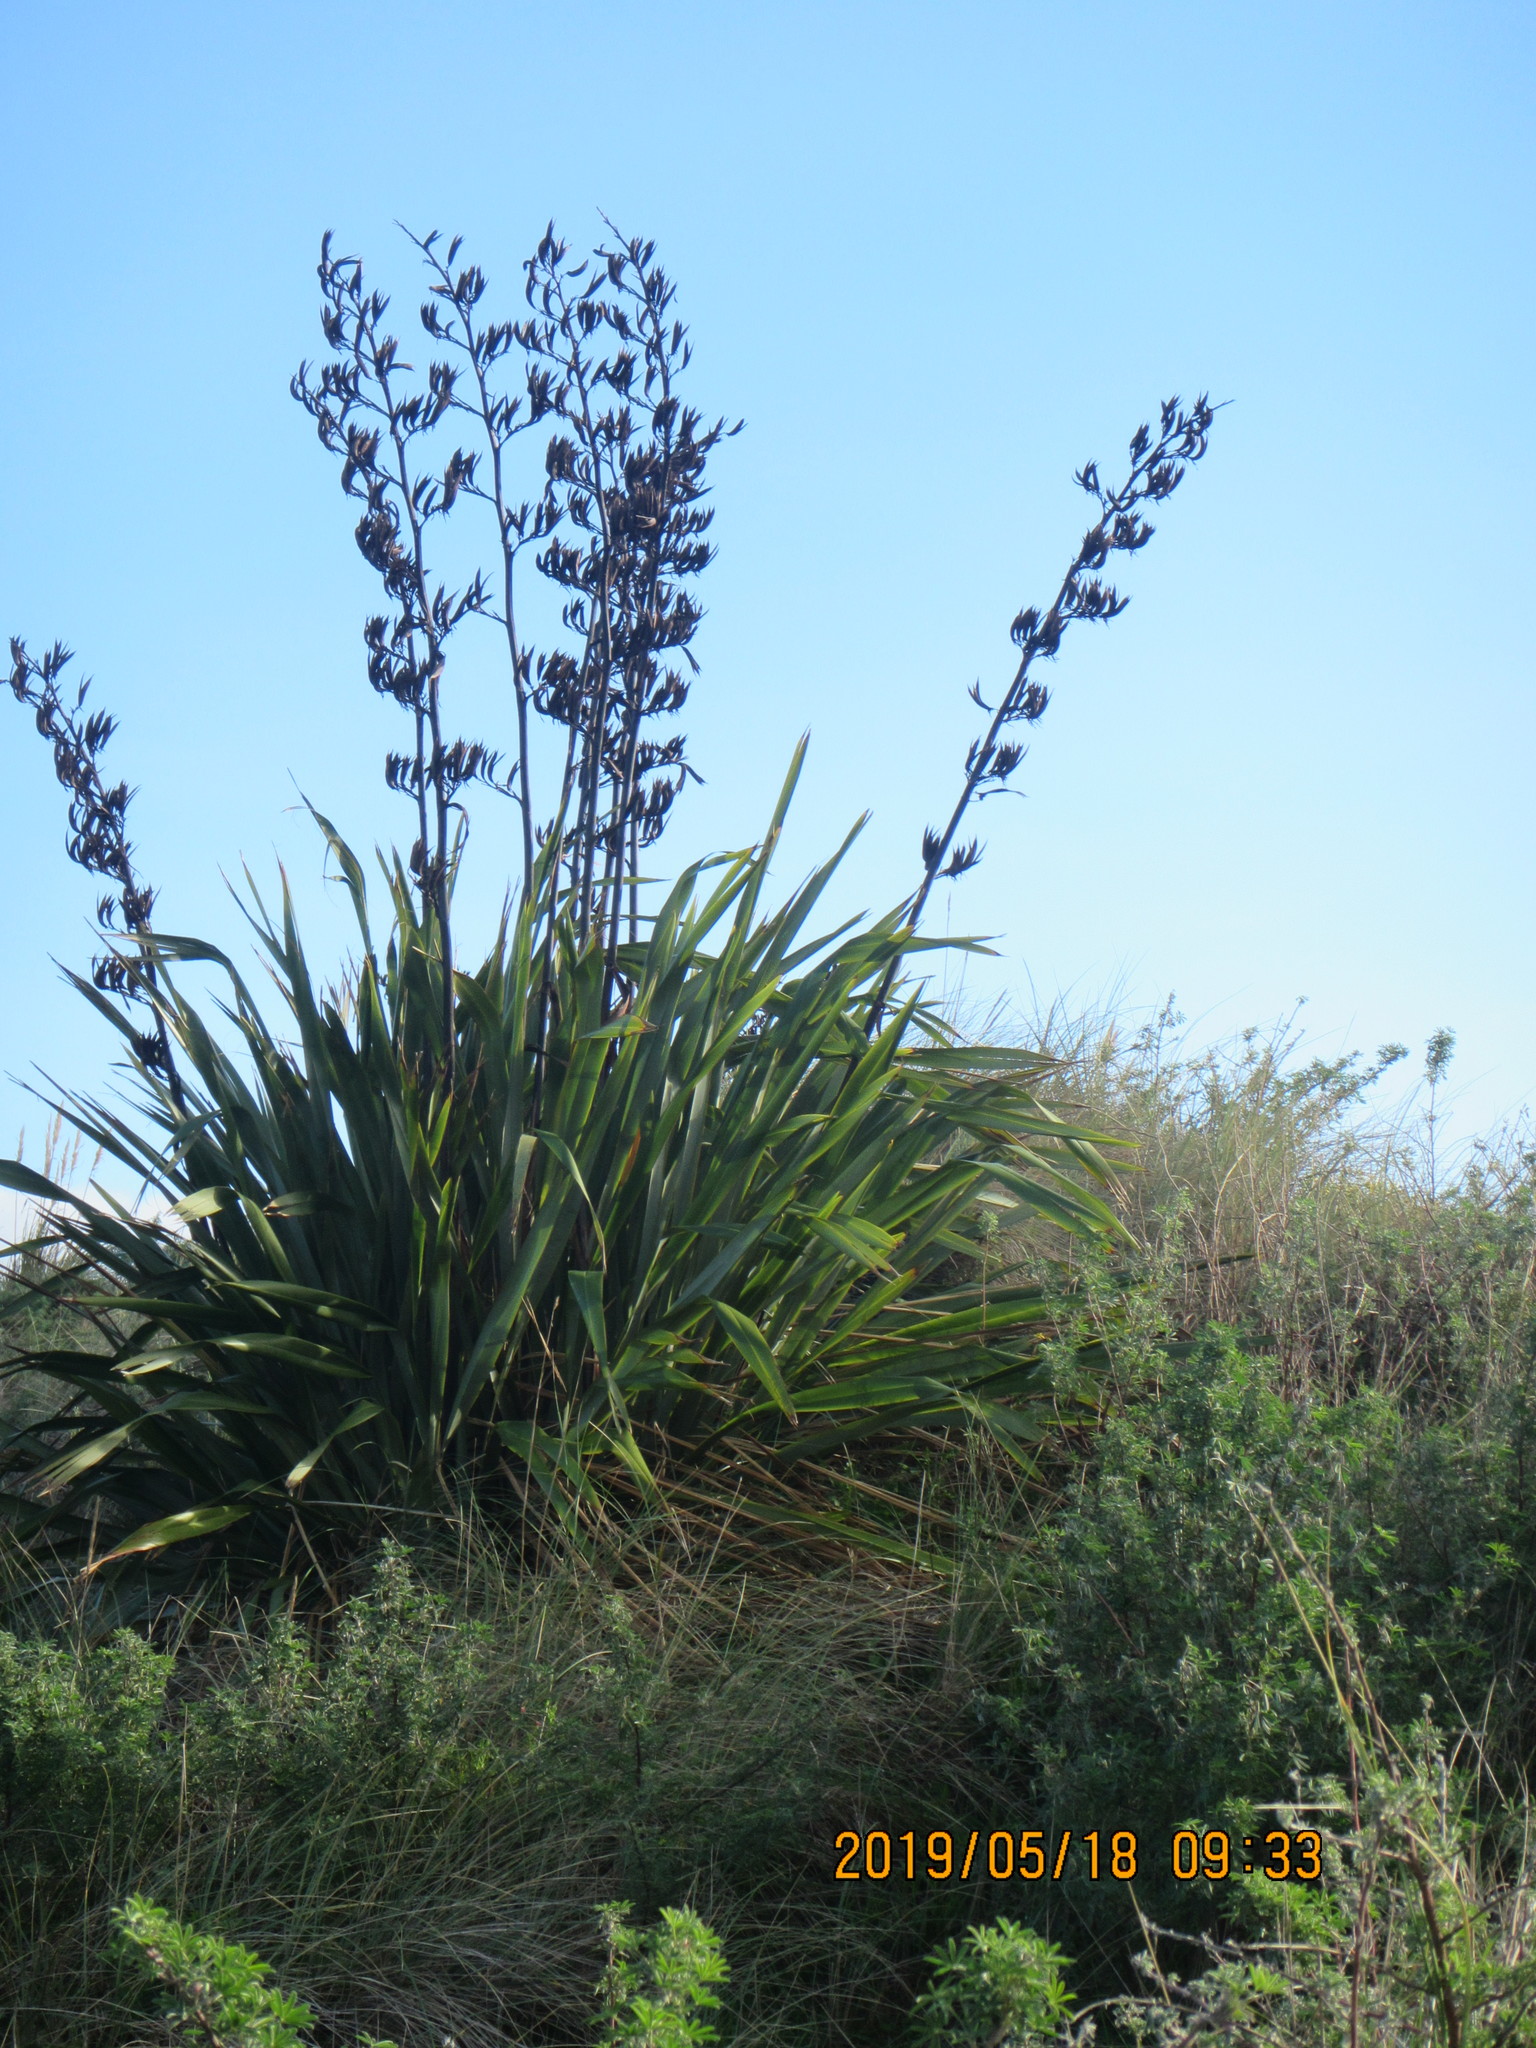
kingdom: Plantae
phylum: Tracheophyta
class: Liliopsida
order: Asparagales
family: Asphodelaceae
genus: Phormium
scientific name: Phormium tenax
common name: New zealand flax
